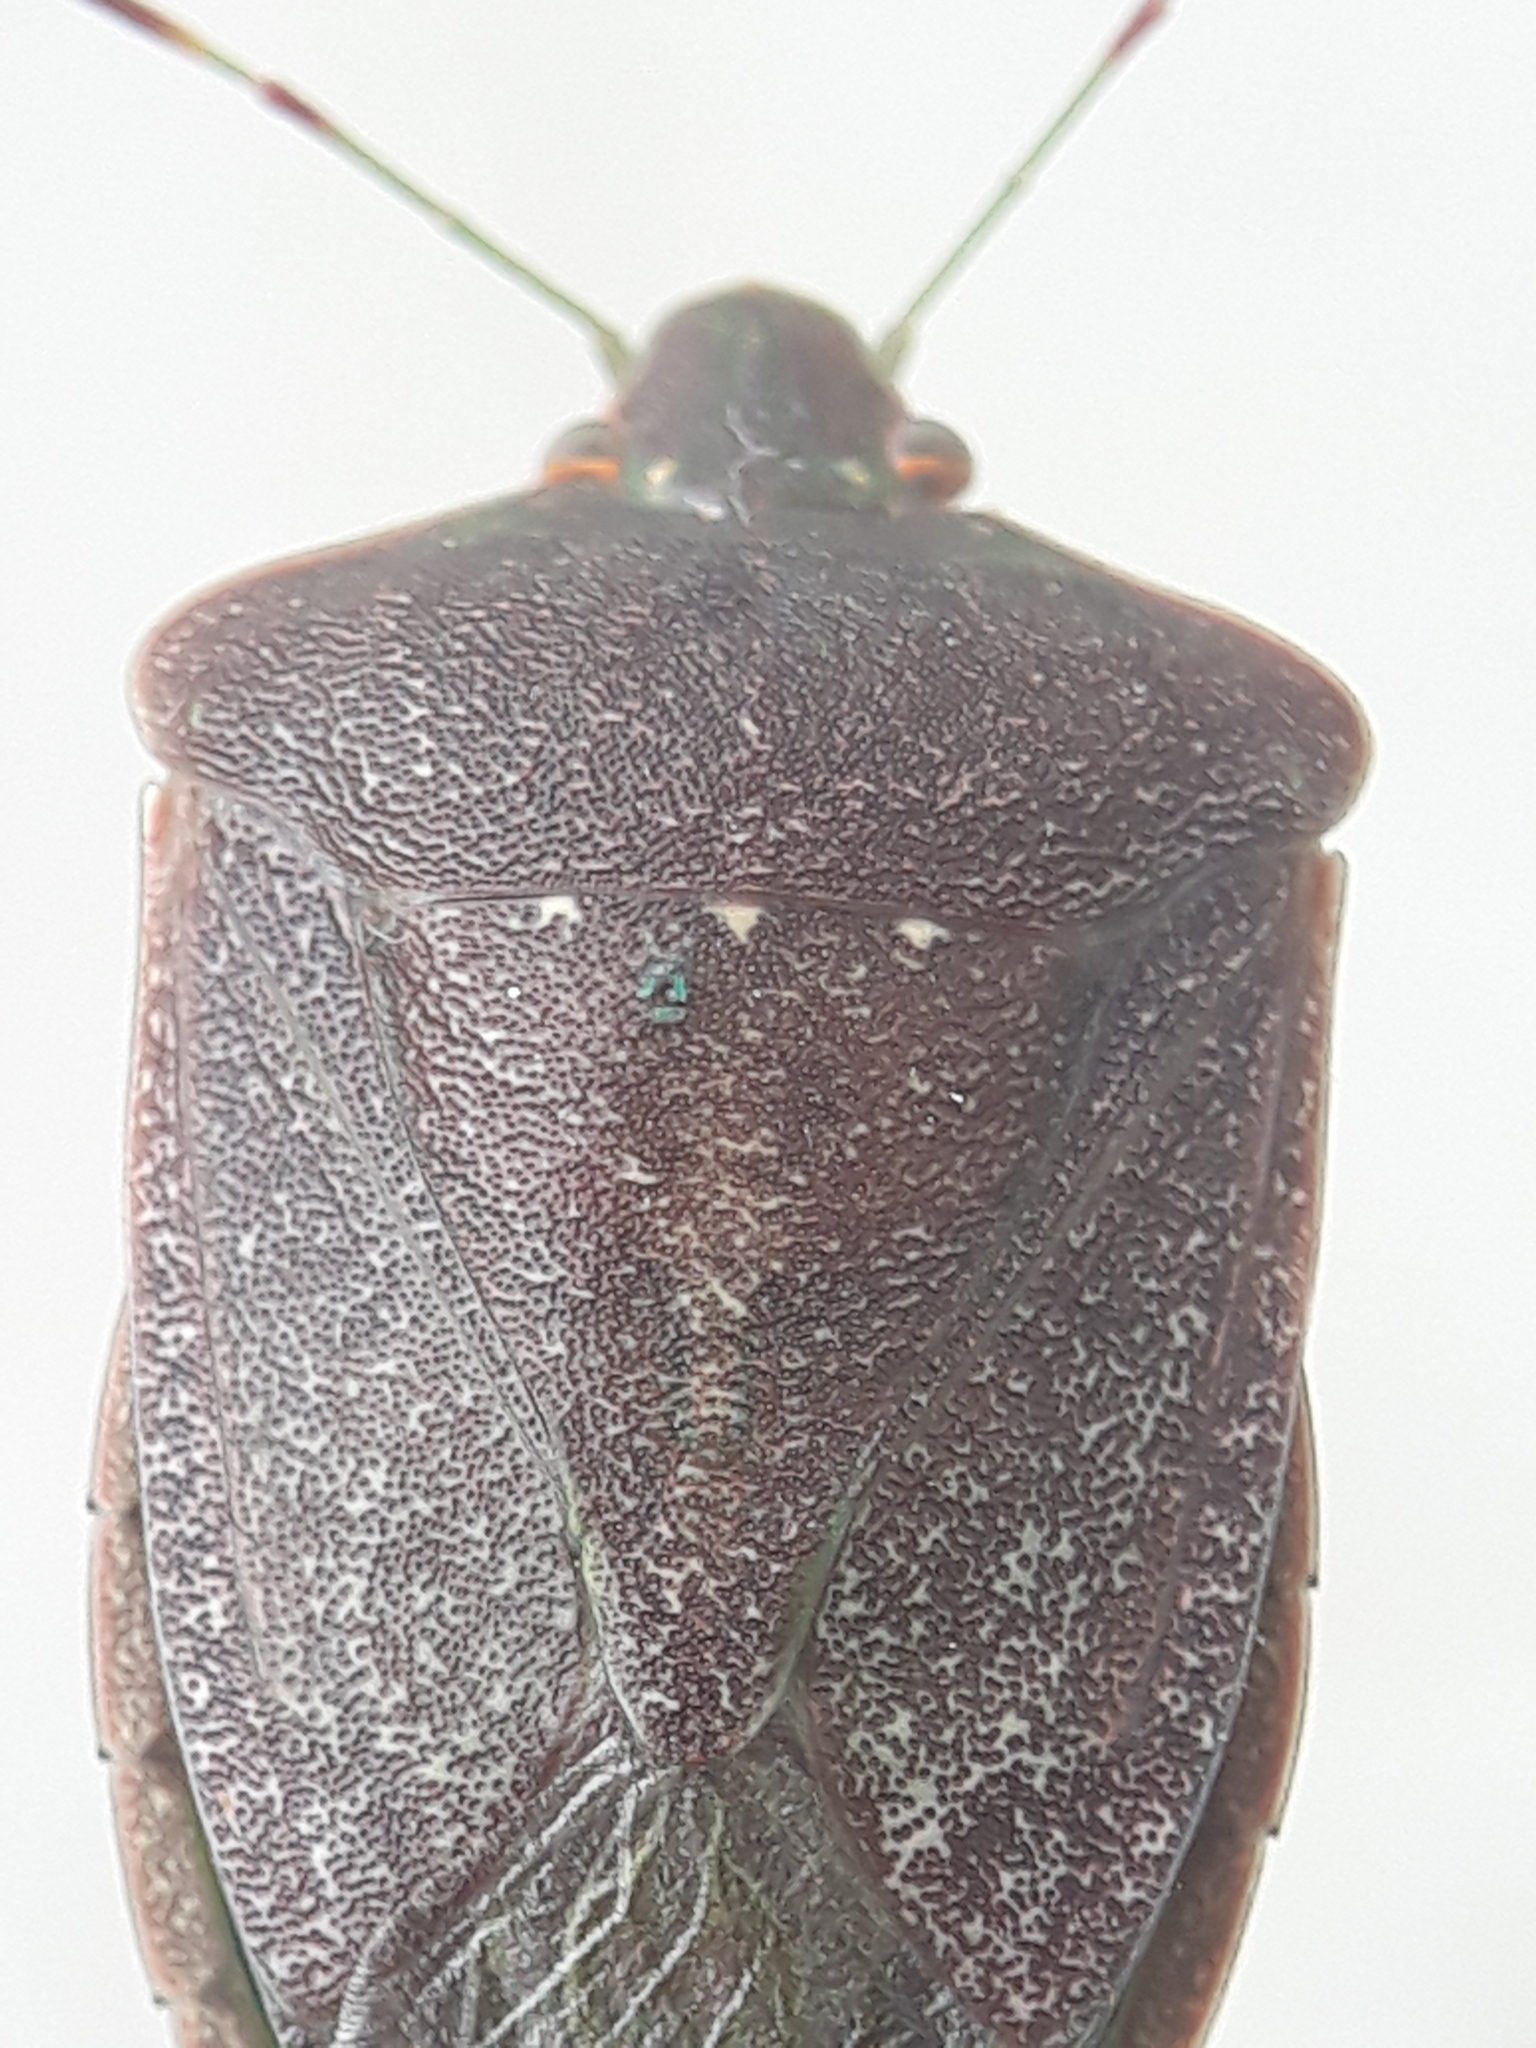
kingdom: Animalia
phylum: Arthropoda
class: Insecta
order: Hemiptera
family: Pentatomidae
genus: Nezara
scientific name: Nezara viridula
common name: Southern green stink bug
